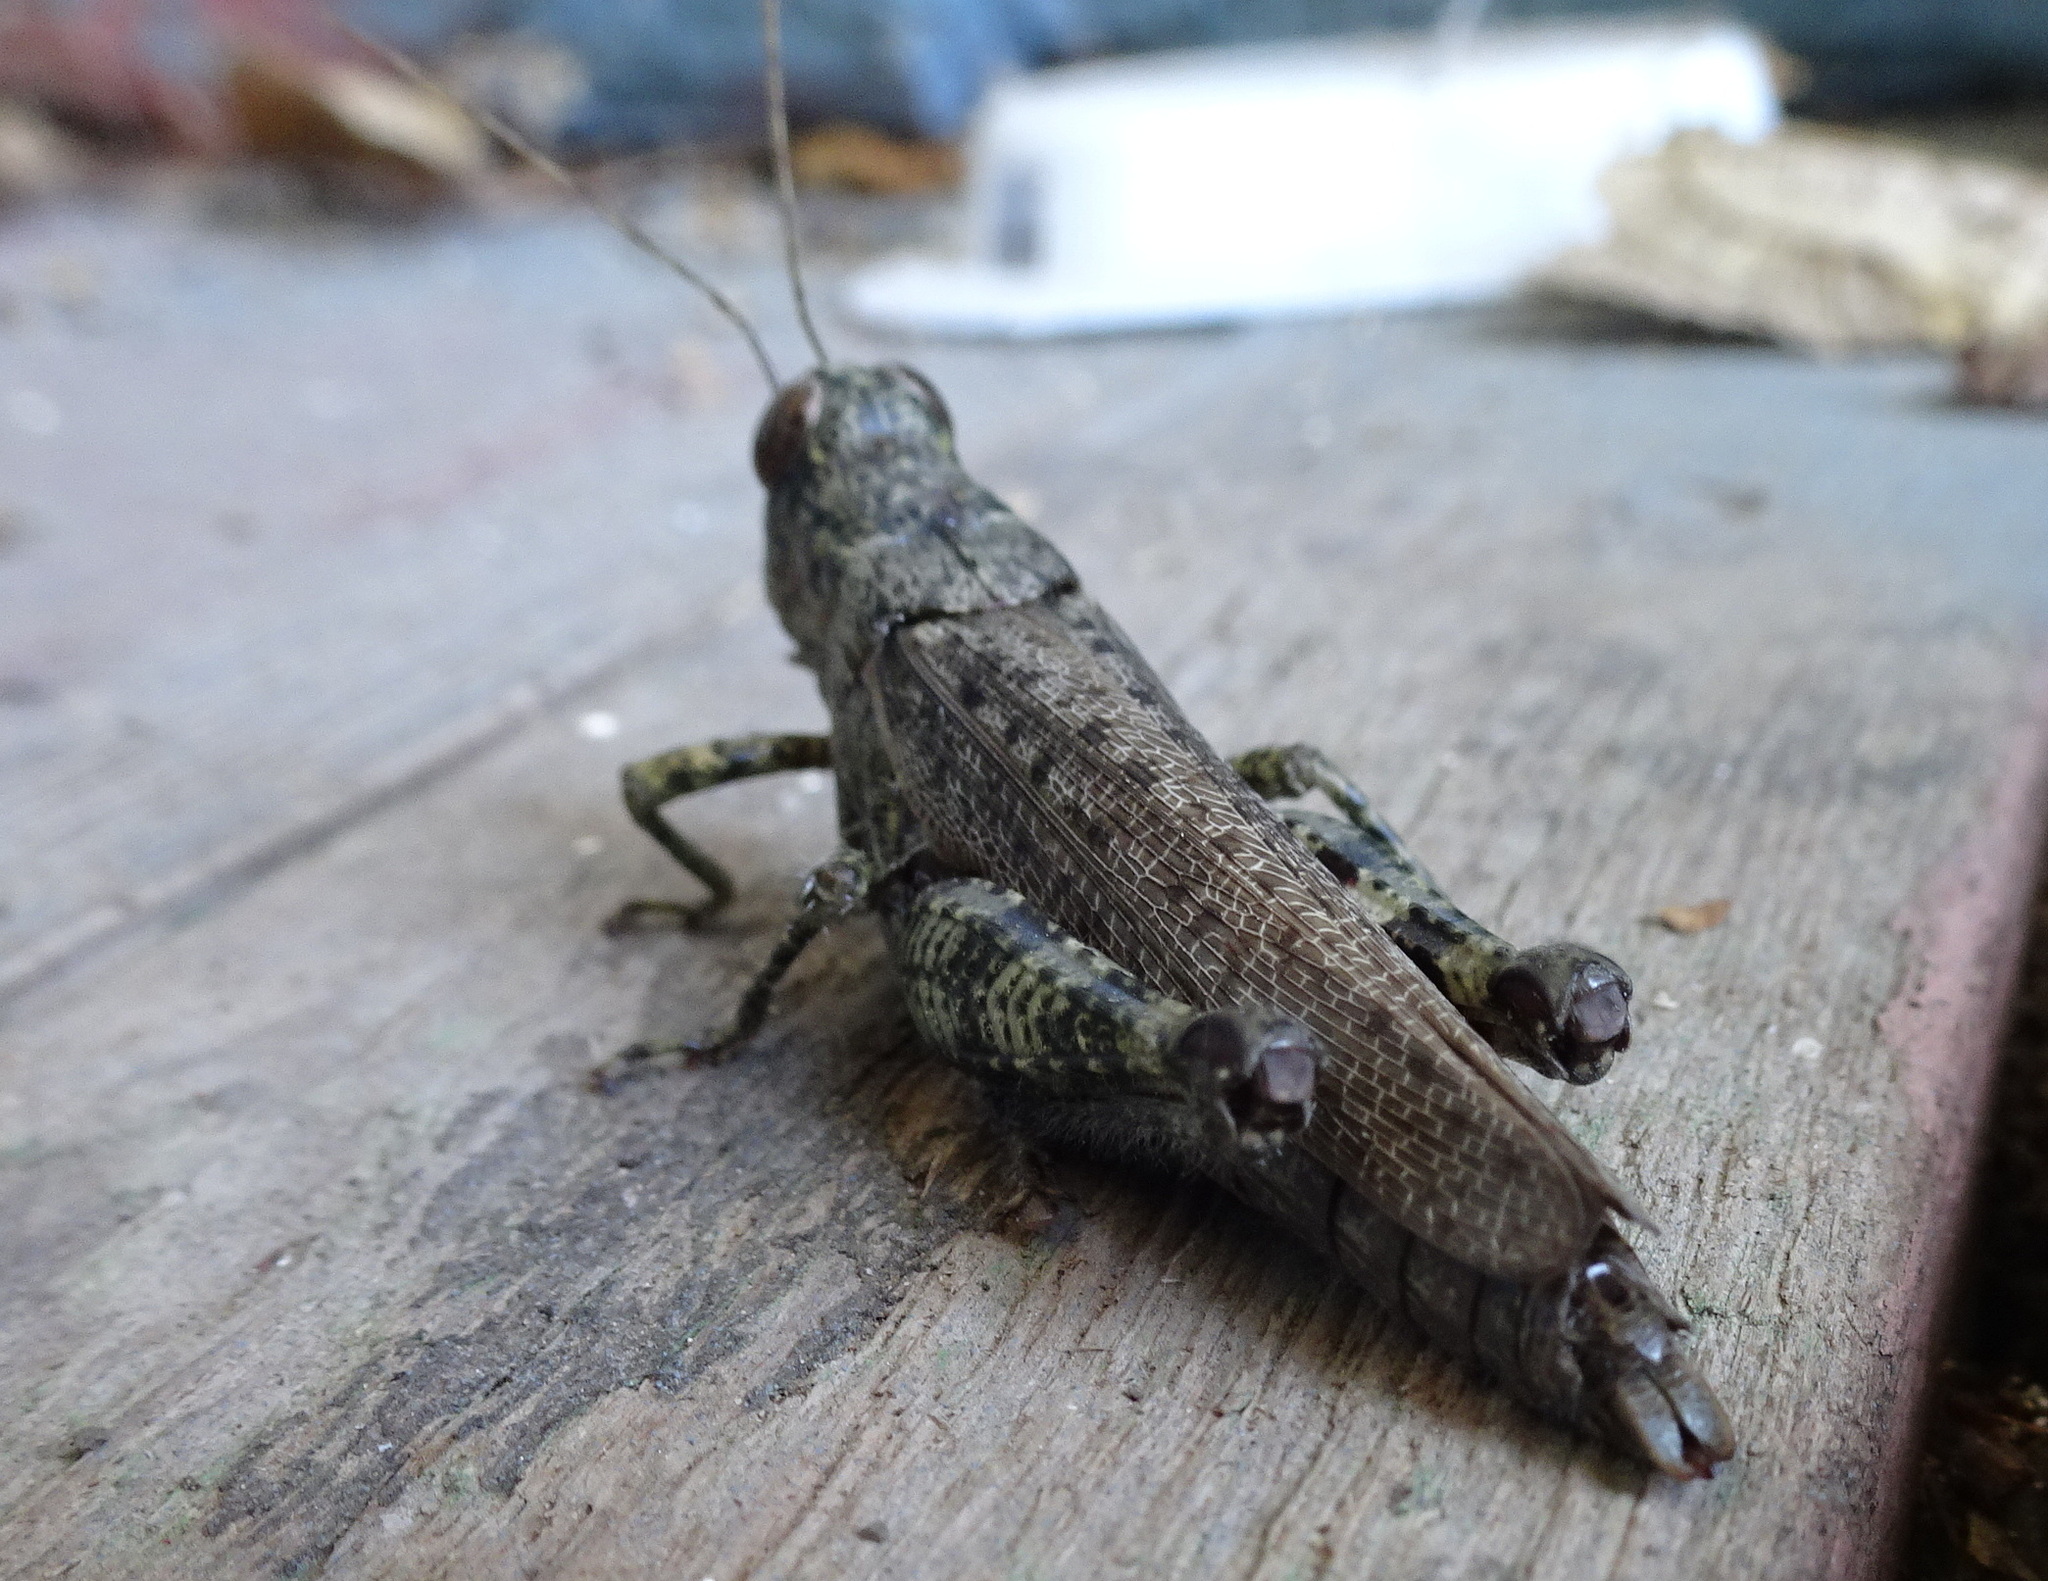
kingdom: Animalia
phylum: Arthropoda
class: Insecta
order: Orthoptera
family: Acrididae
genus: Melanoplus
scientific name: Melanoplus punctulatus
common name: Pine-tree spur-throat grasshopper
